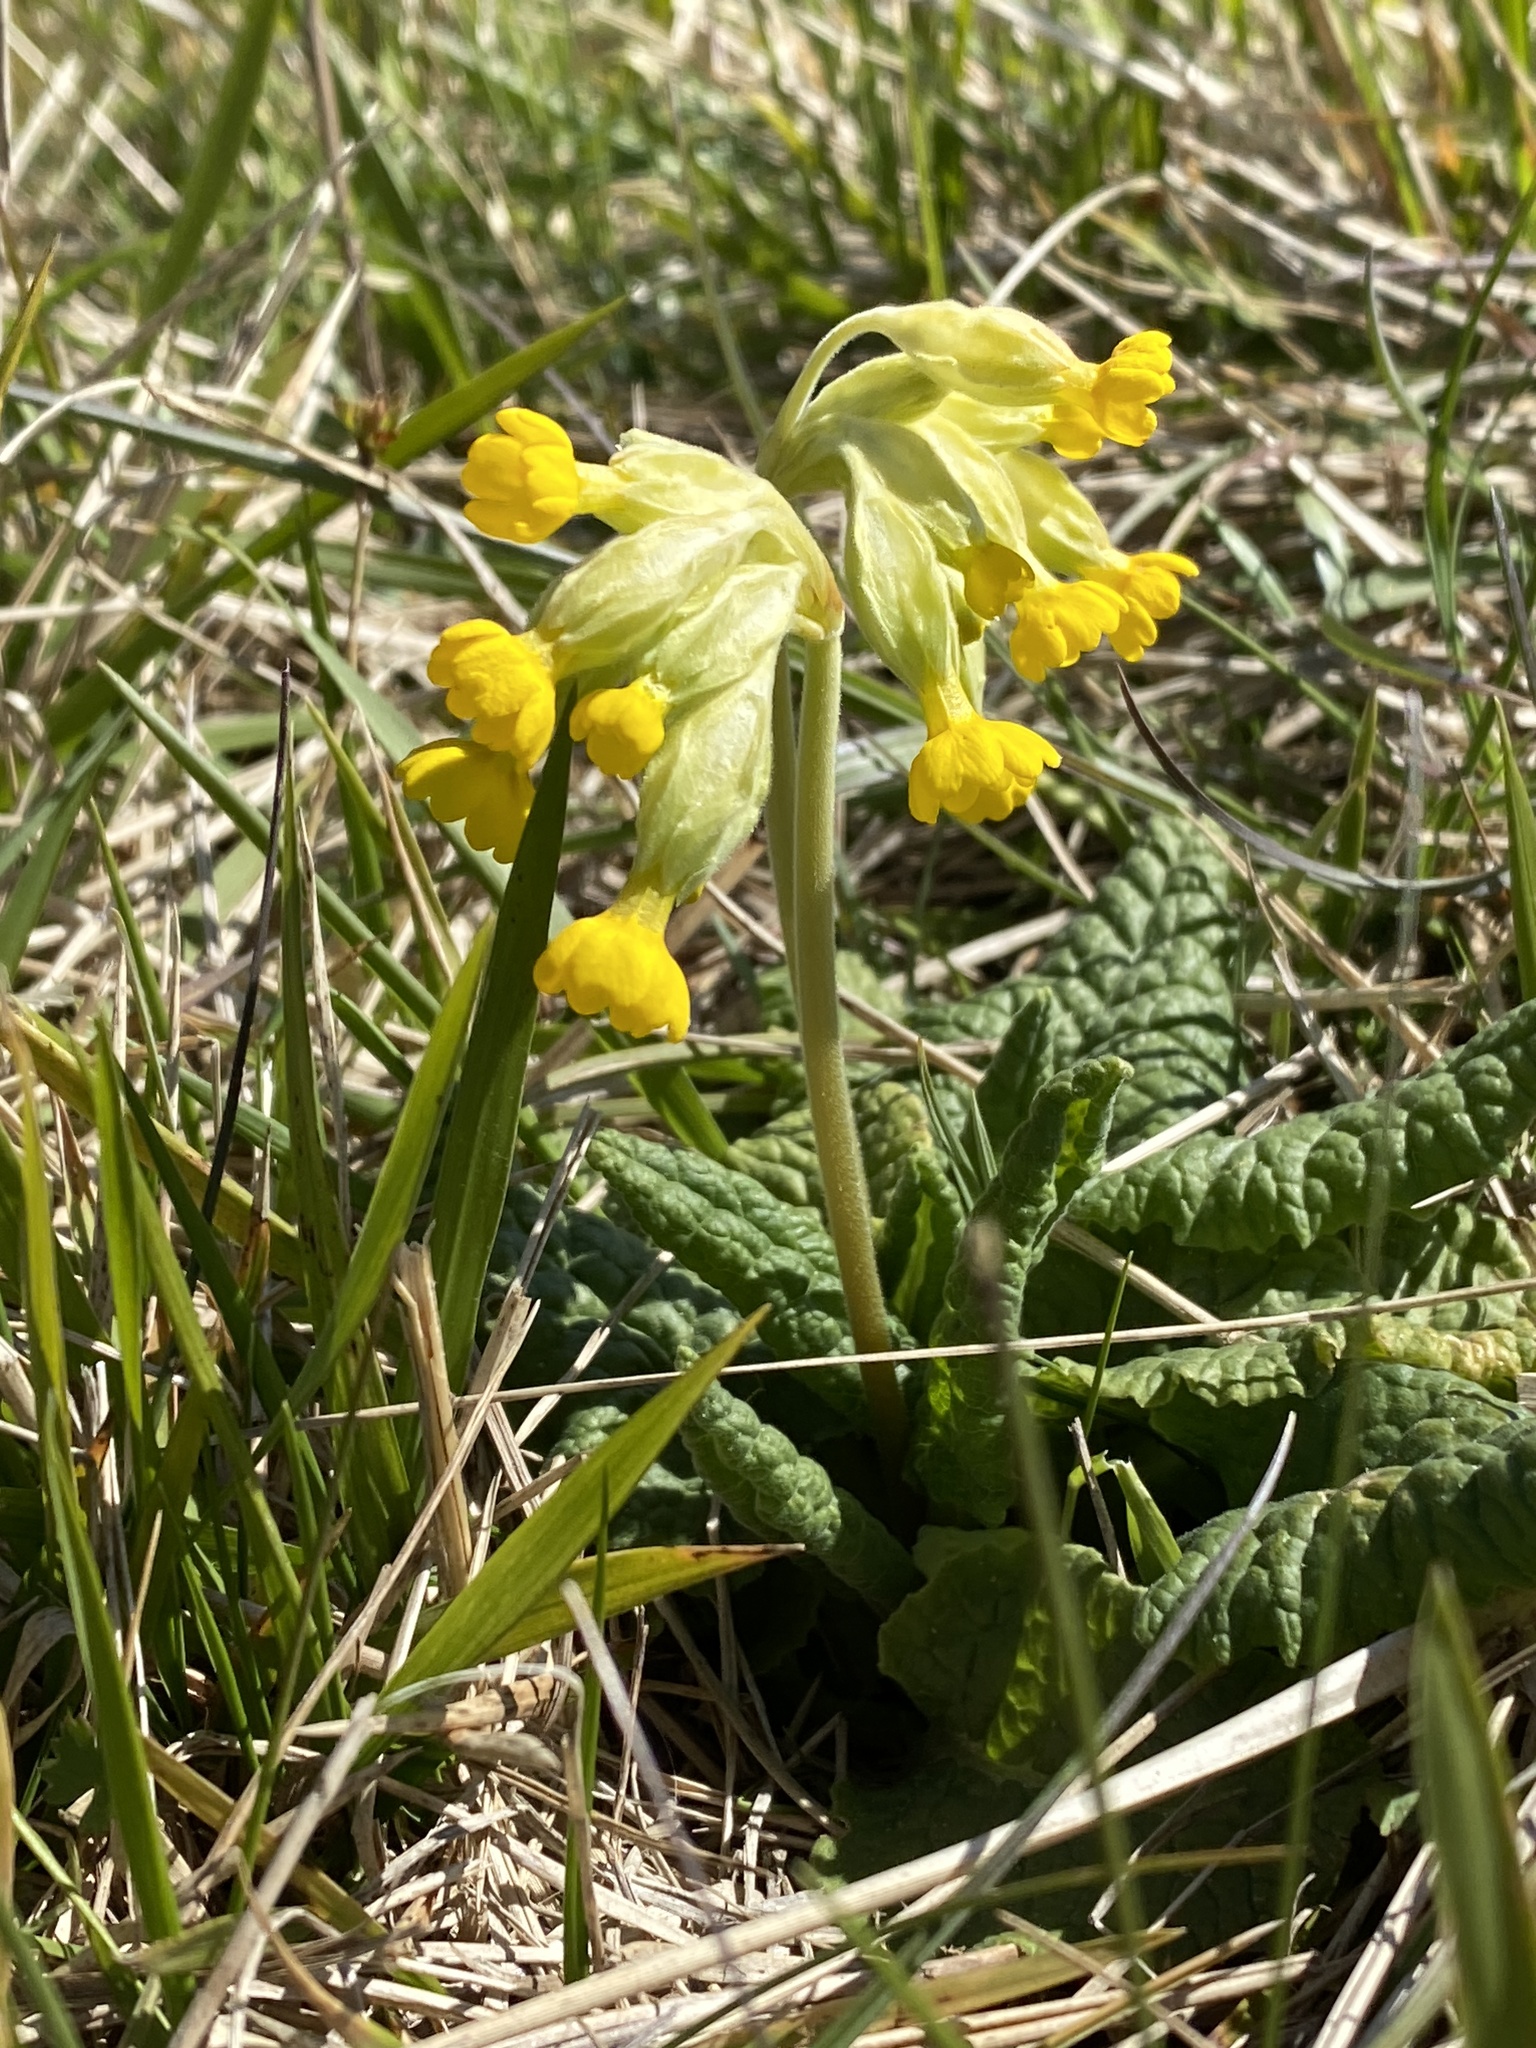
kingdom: Plantae
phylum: Tracheophyta
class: Magnoliopsida
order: Ericales
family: Primulaceae
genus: Primula
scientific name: Primula veris
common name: Cowslip
